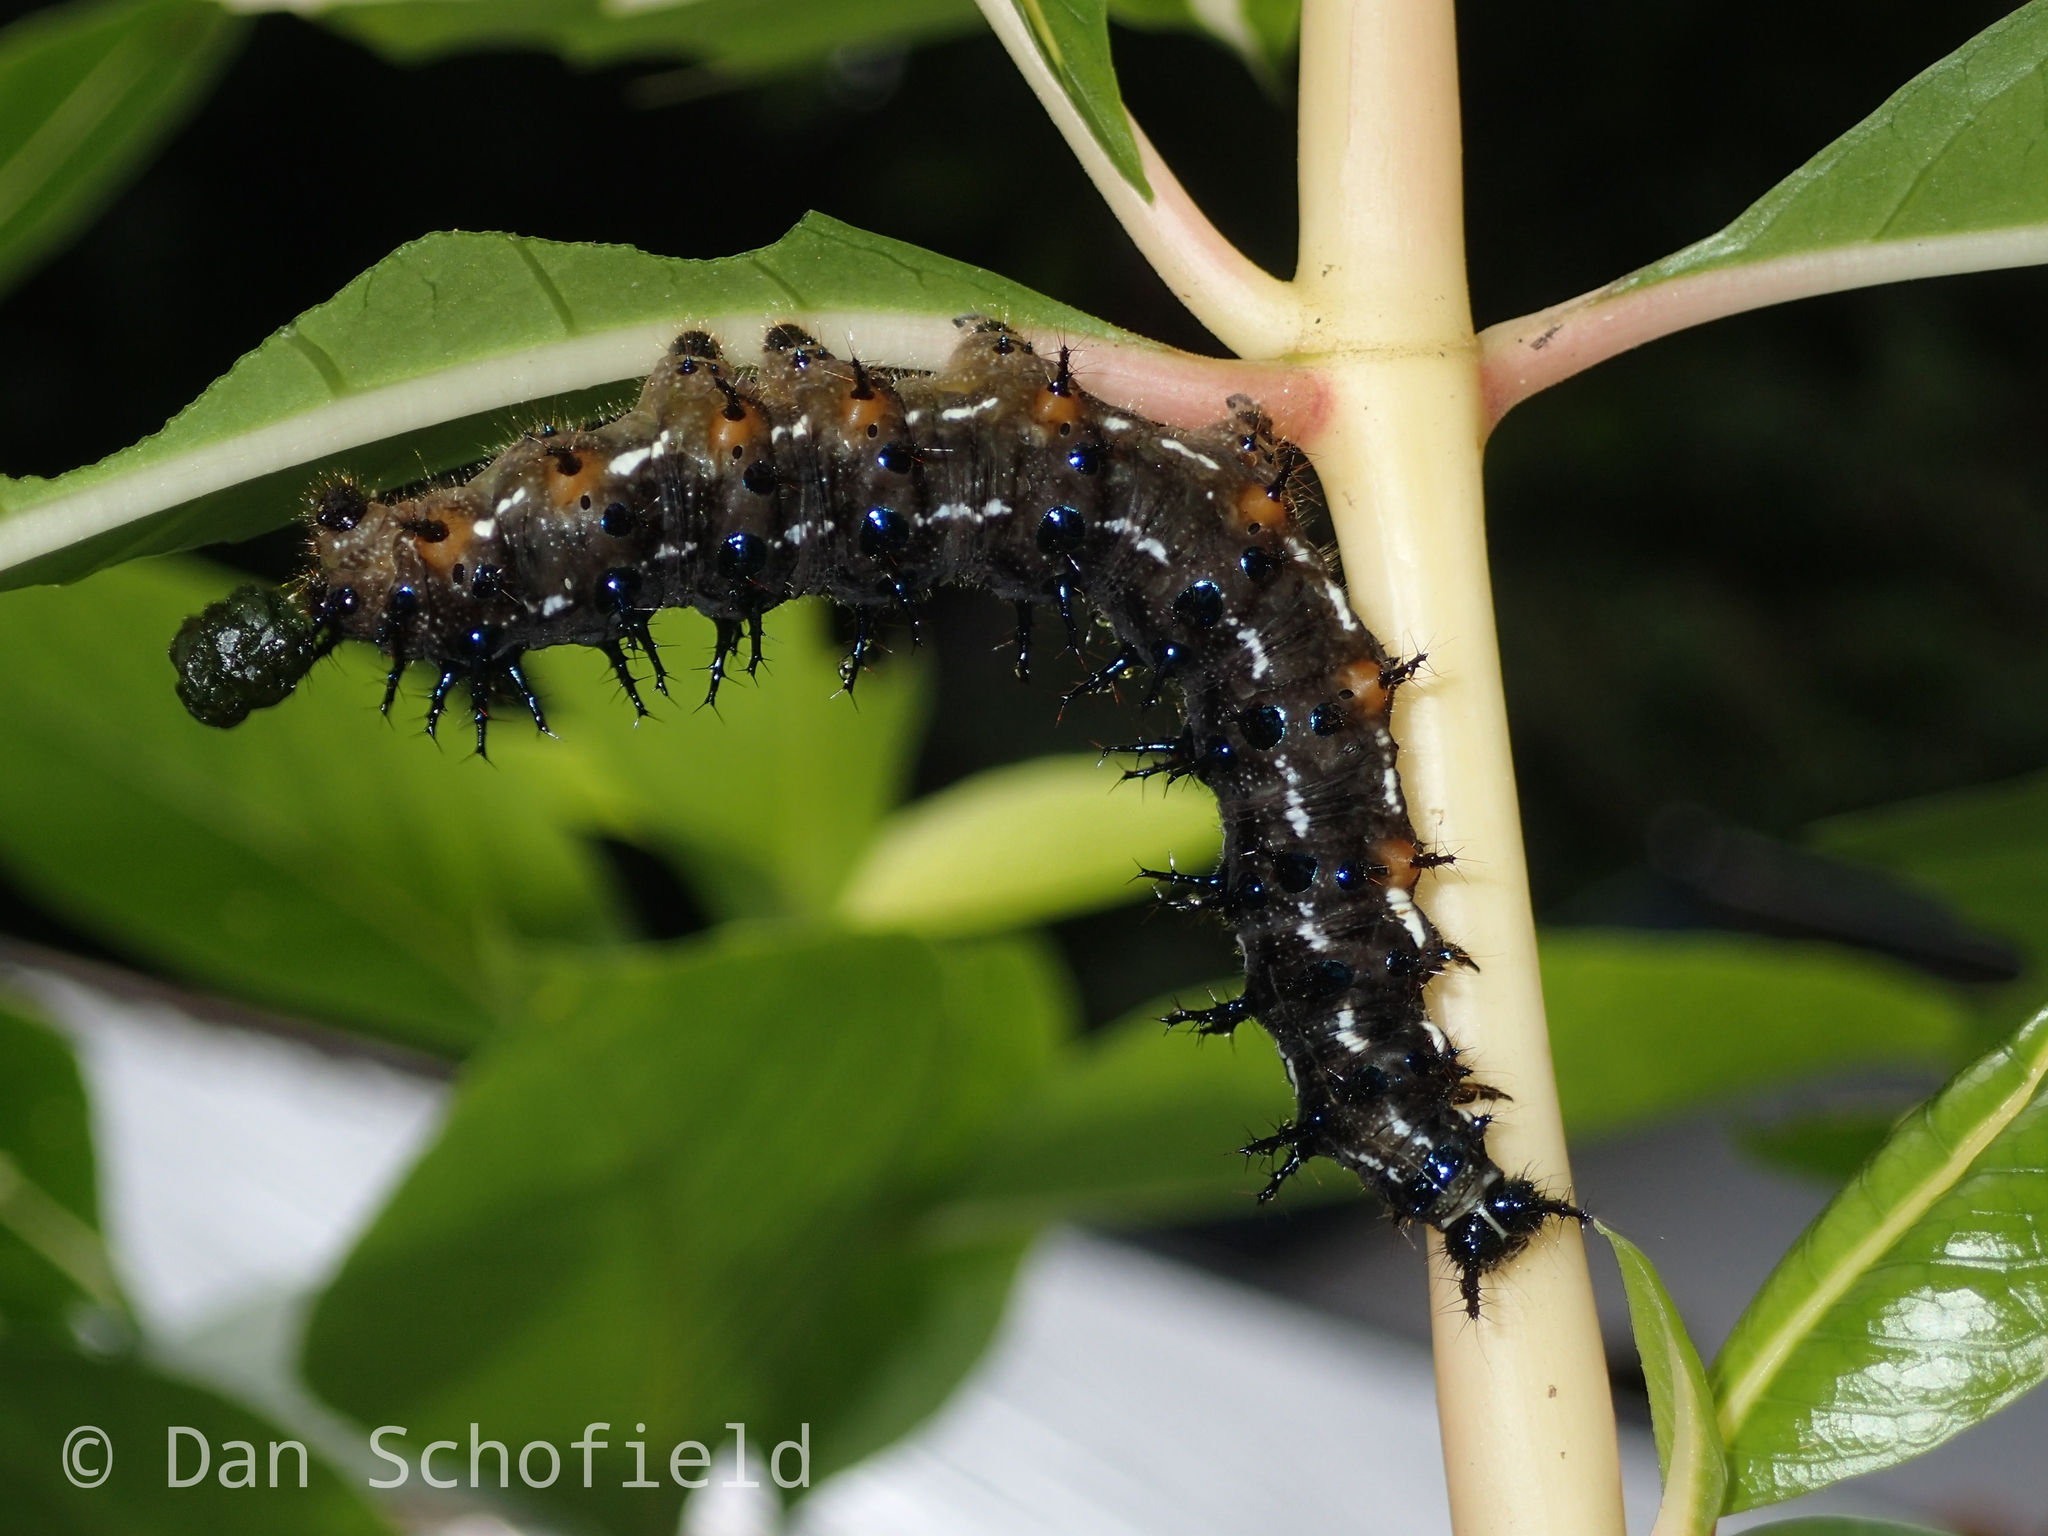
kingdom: Animalia
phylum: Arthropoda
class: Insecta
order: Lepidoptera
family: Nymphalidae
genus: Doleschallia
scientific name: Doleschallia bisaltide
